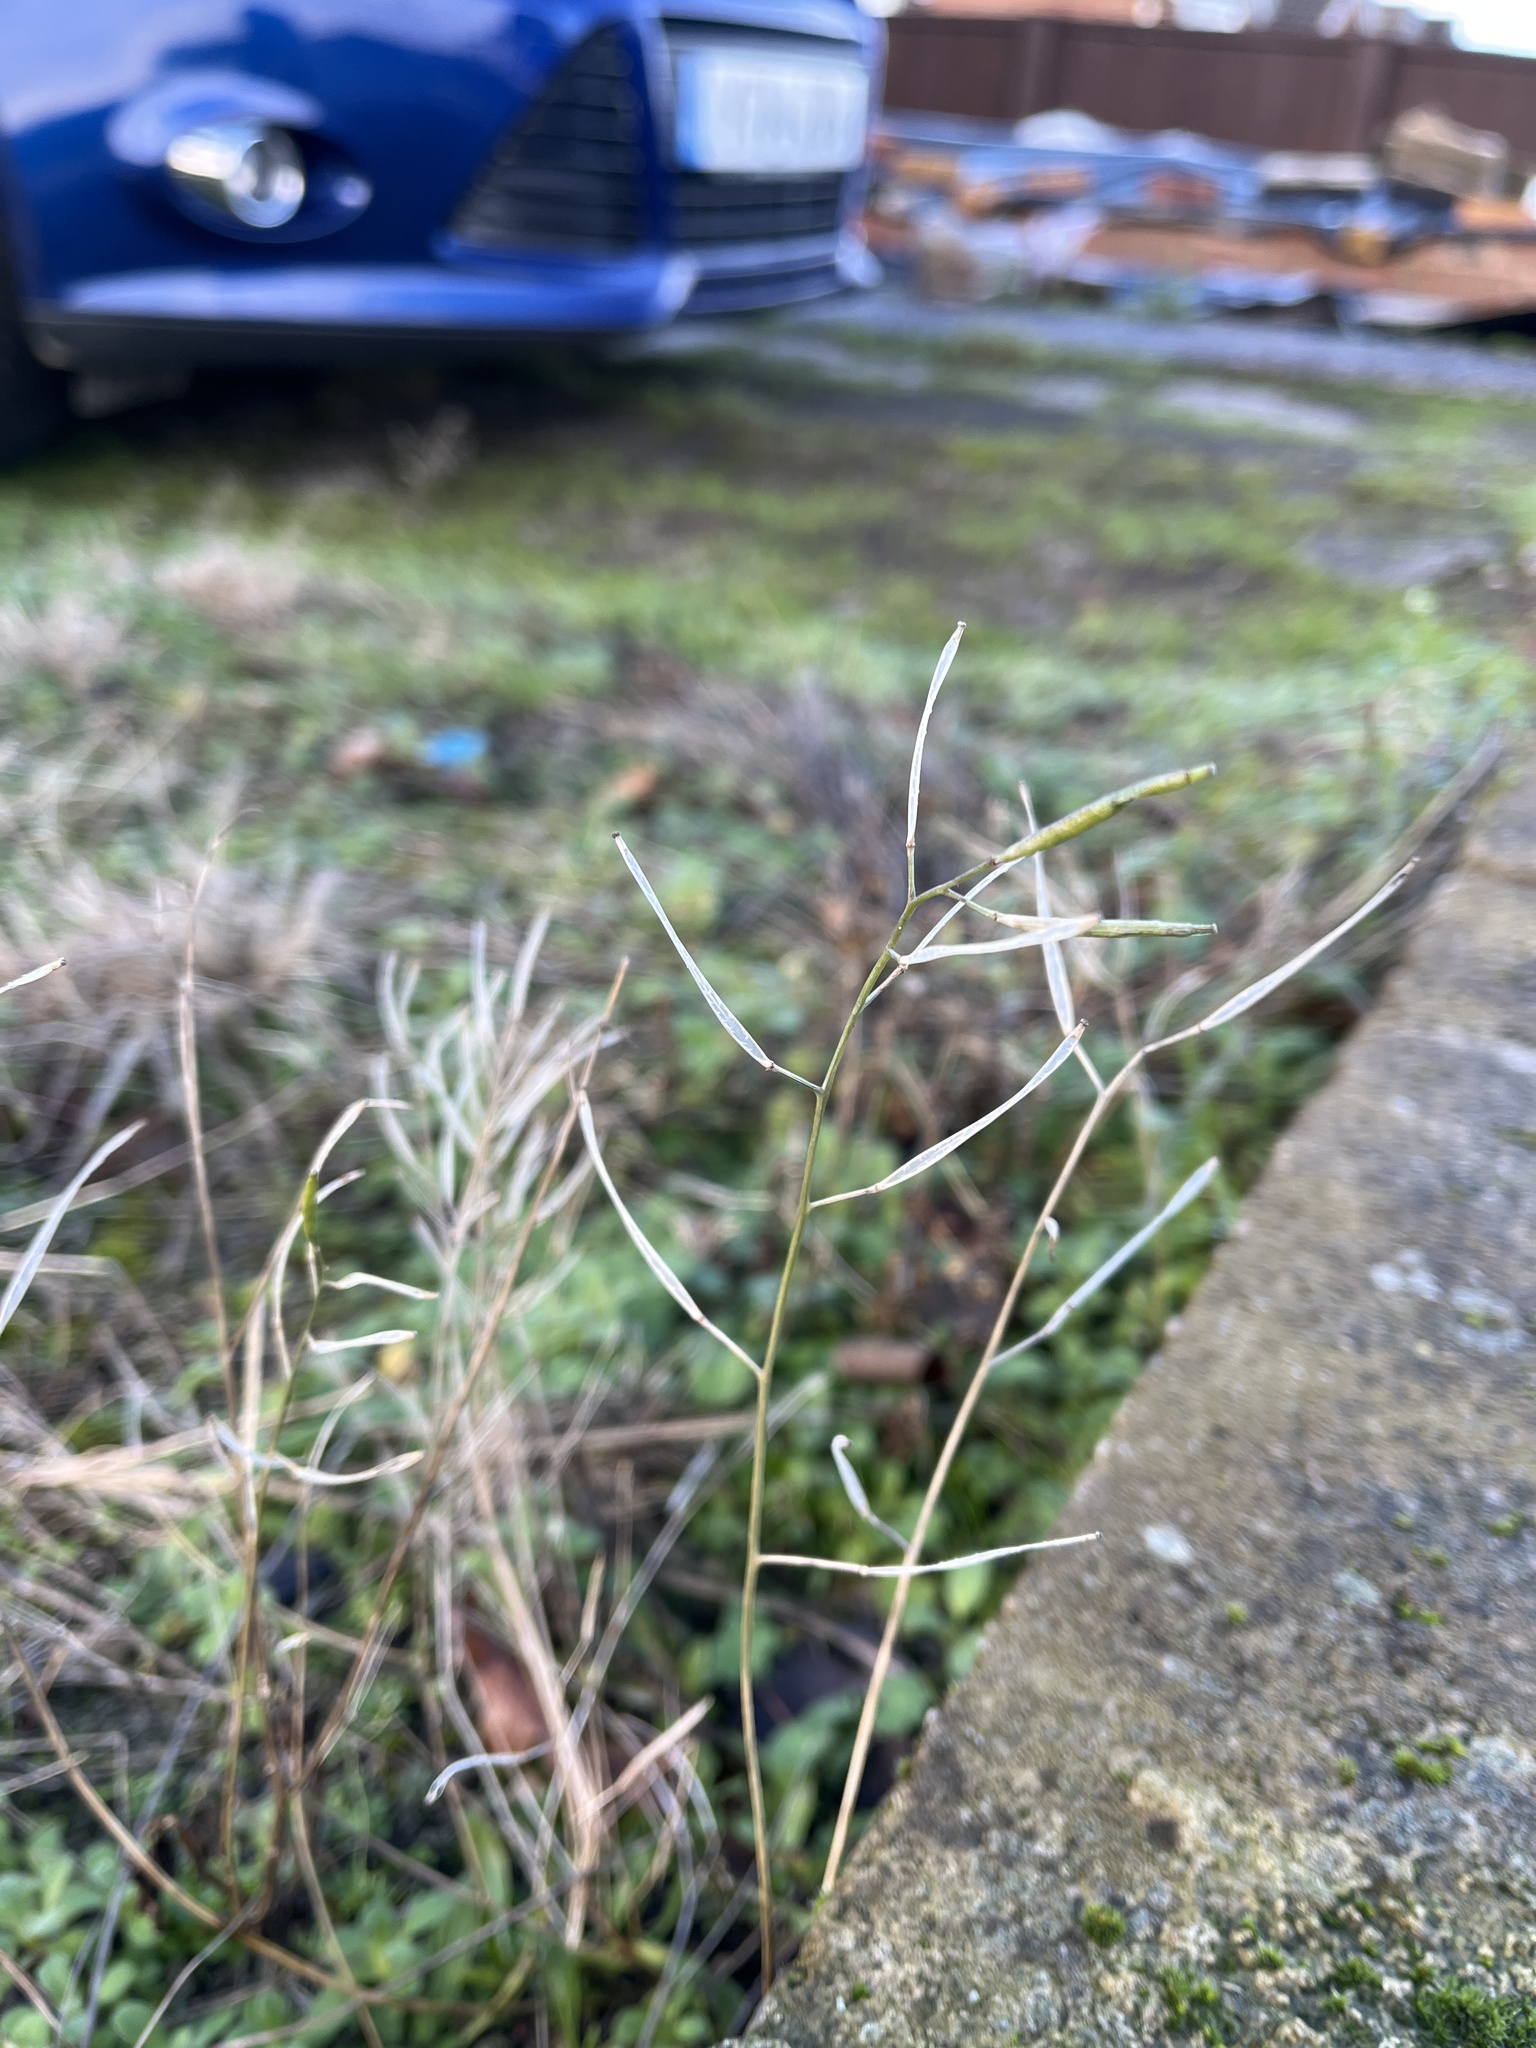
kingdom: Plantae
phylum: Tracheophyta
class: Magnoliopsida
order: Brassicales
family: Brassicaceae
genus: Arabidopsis
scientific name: Arabidopsis thaliana
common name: Thale cress
